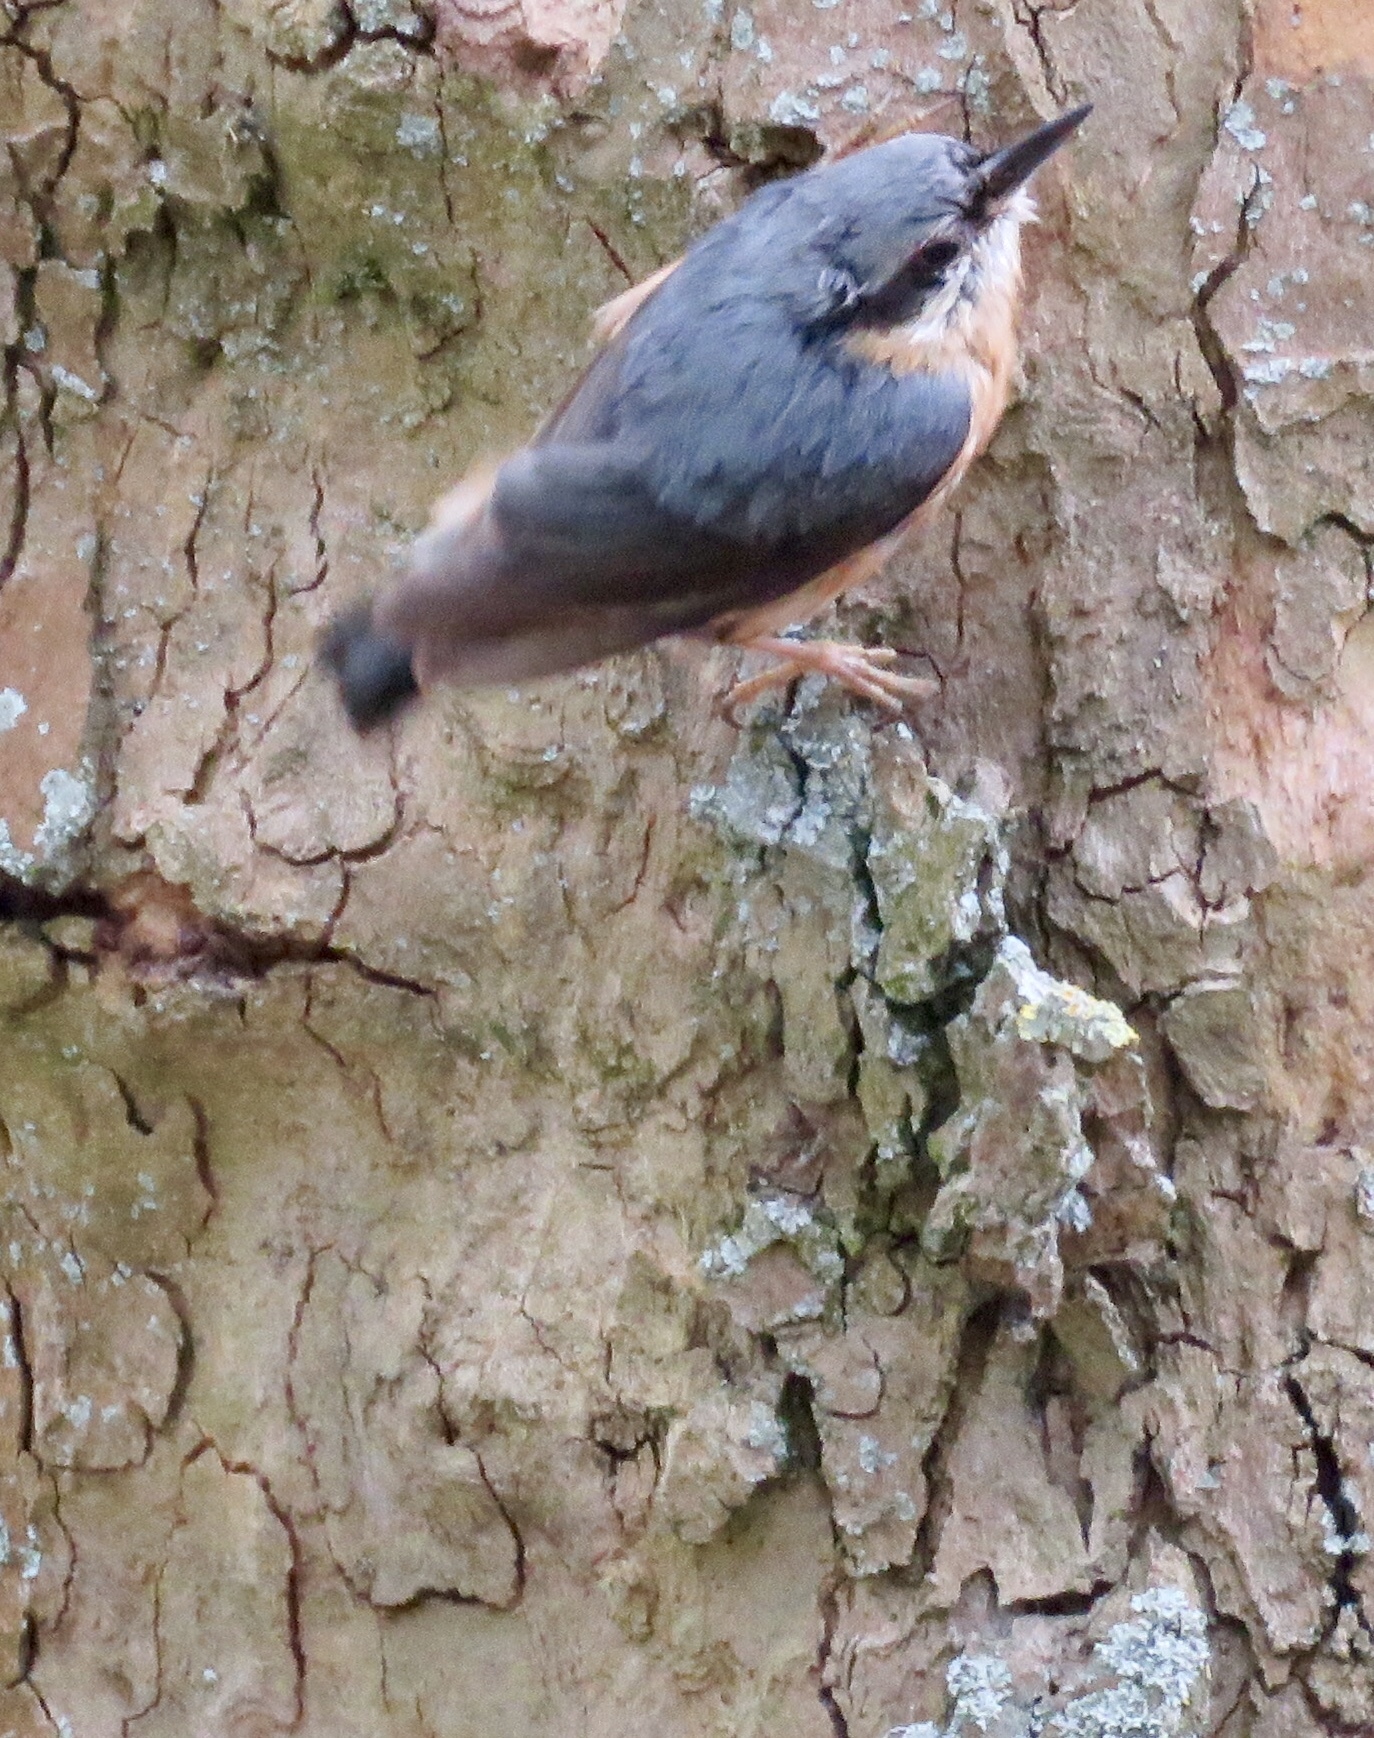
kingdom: Animalia
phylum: Chordata
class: Aves
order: Passeriformes
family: Sittidae
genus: Sitta
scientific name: Sitta europaea
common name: Eurasian nuthatch
